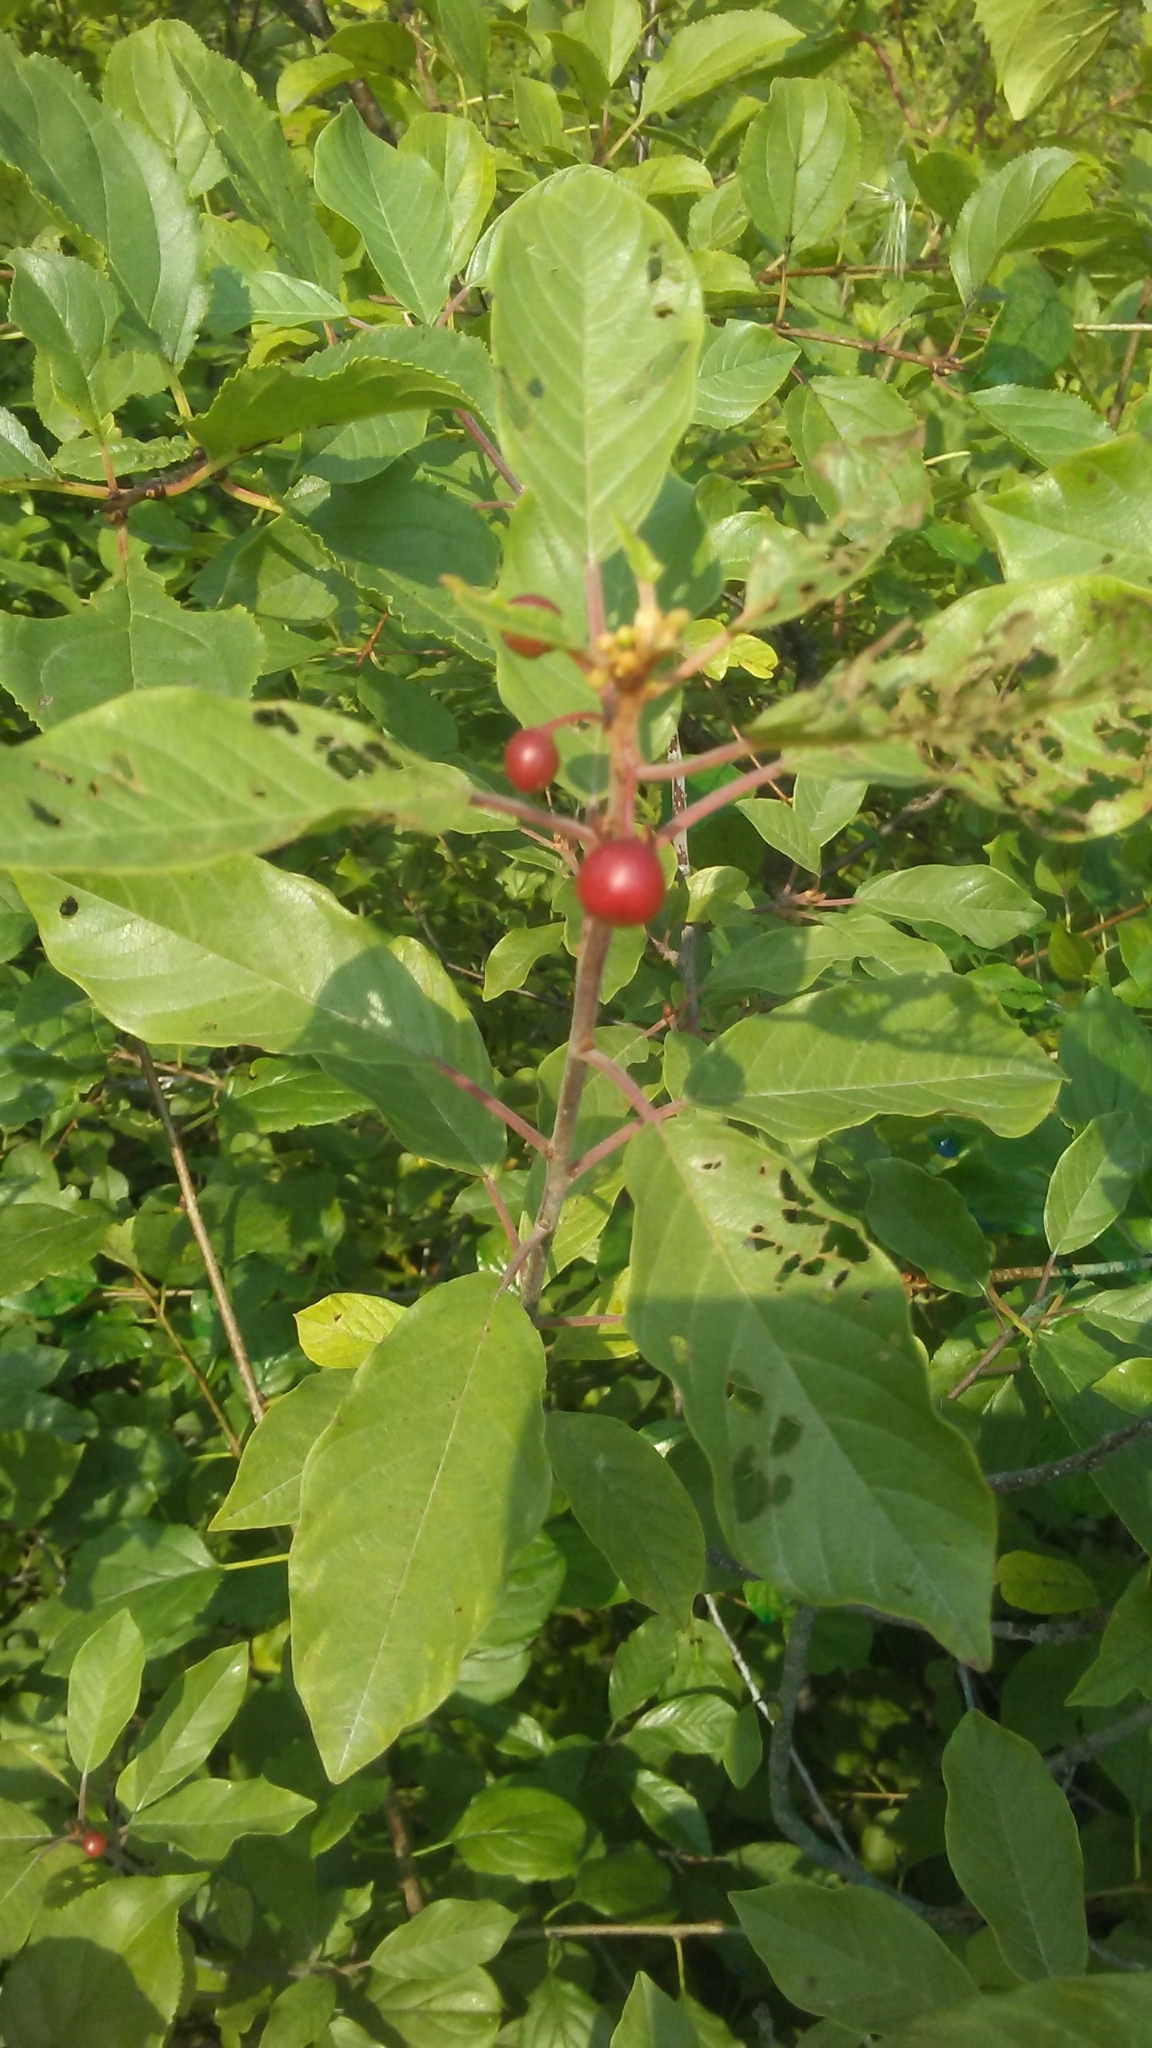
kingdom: Plantae
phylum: Tracheophyta
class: Magnoliopsida
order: Rosales
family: Rhamnaceae
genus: Frangula
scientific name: Frangula alnus
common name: Alder buckthorn
